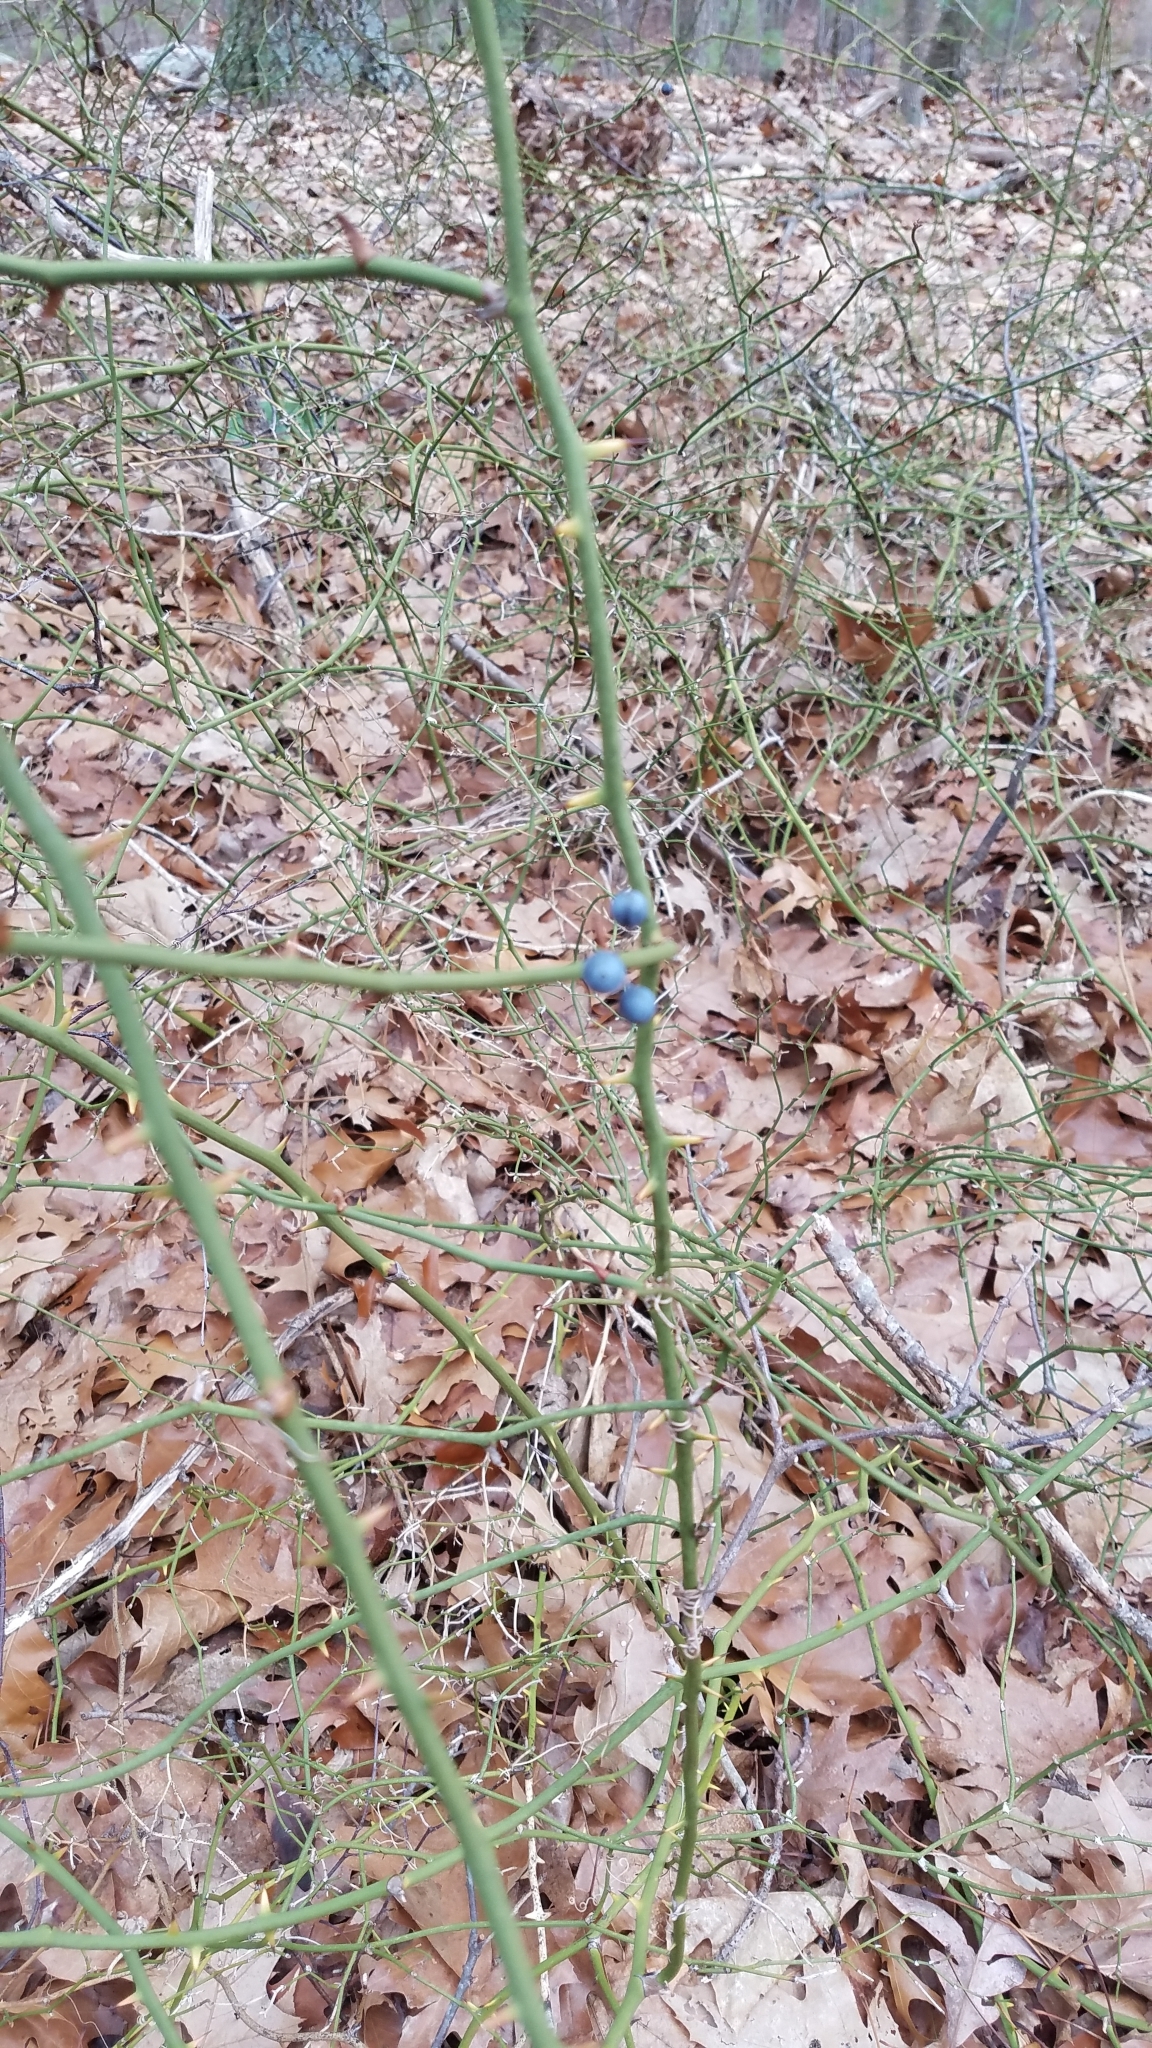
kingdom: Plantae
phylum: Tracheophyta
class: Liliopsida
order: Liliales
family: Smilacaceae
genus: Smilax
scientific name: Smilax rotundifolia
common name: Bullbriar
